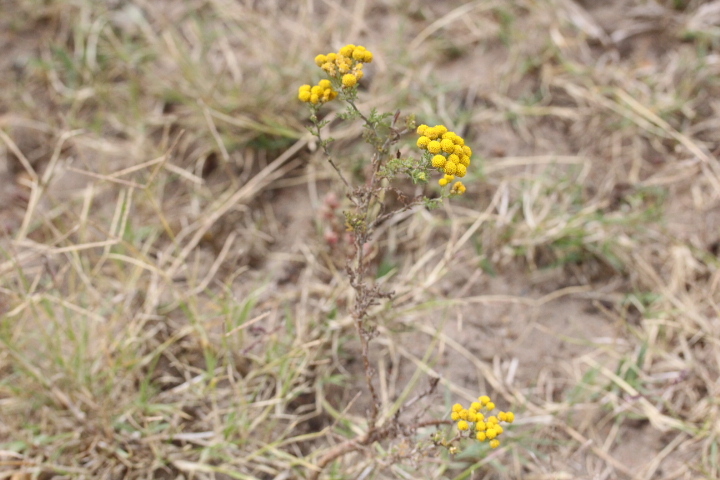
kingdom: Plantae
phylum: Tracheophyta
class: Magnoliopsida
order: Asterales
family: Asteraceae
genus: Oncosiphon
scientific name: Oncosiphon suffruticosus
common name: Shrubby mayweed
